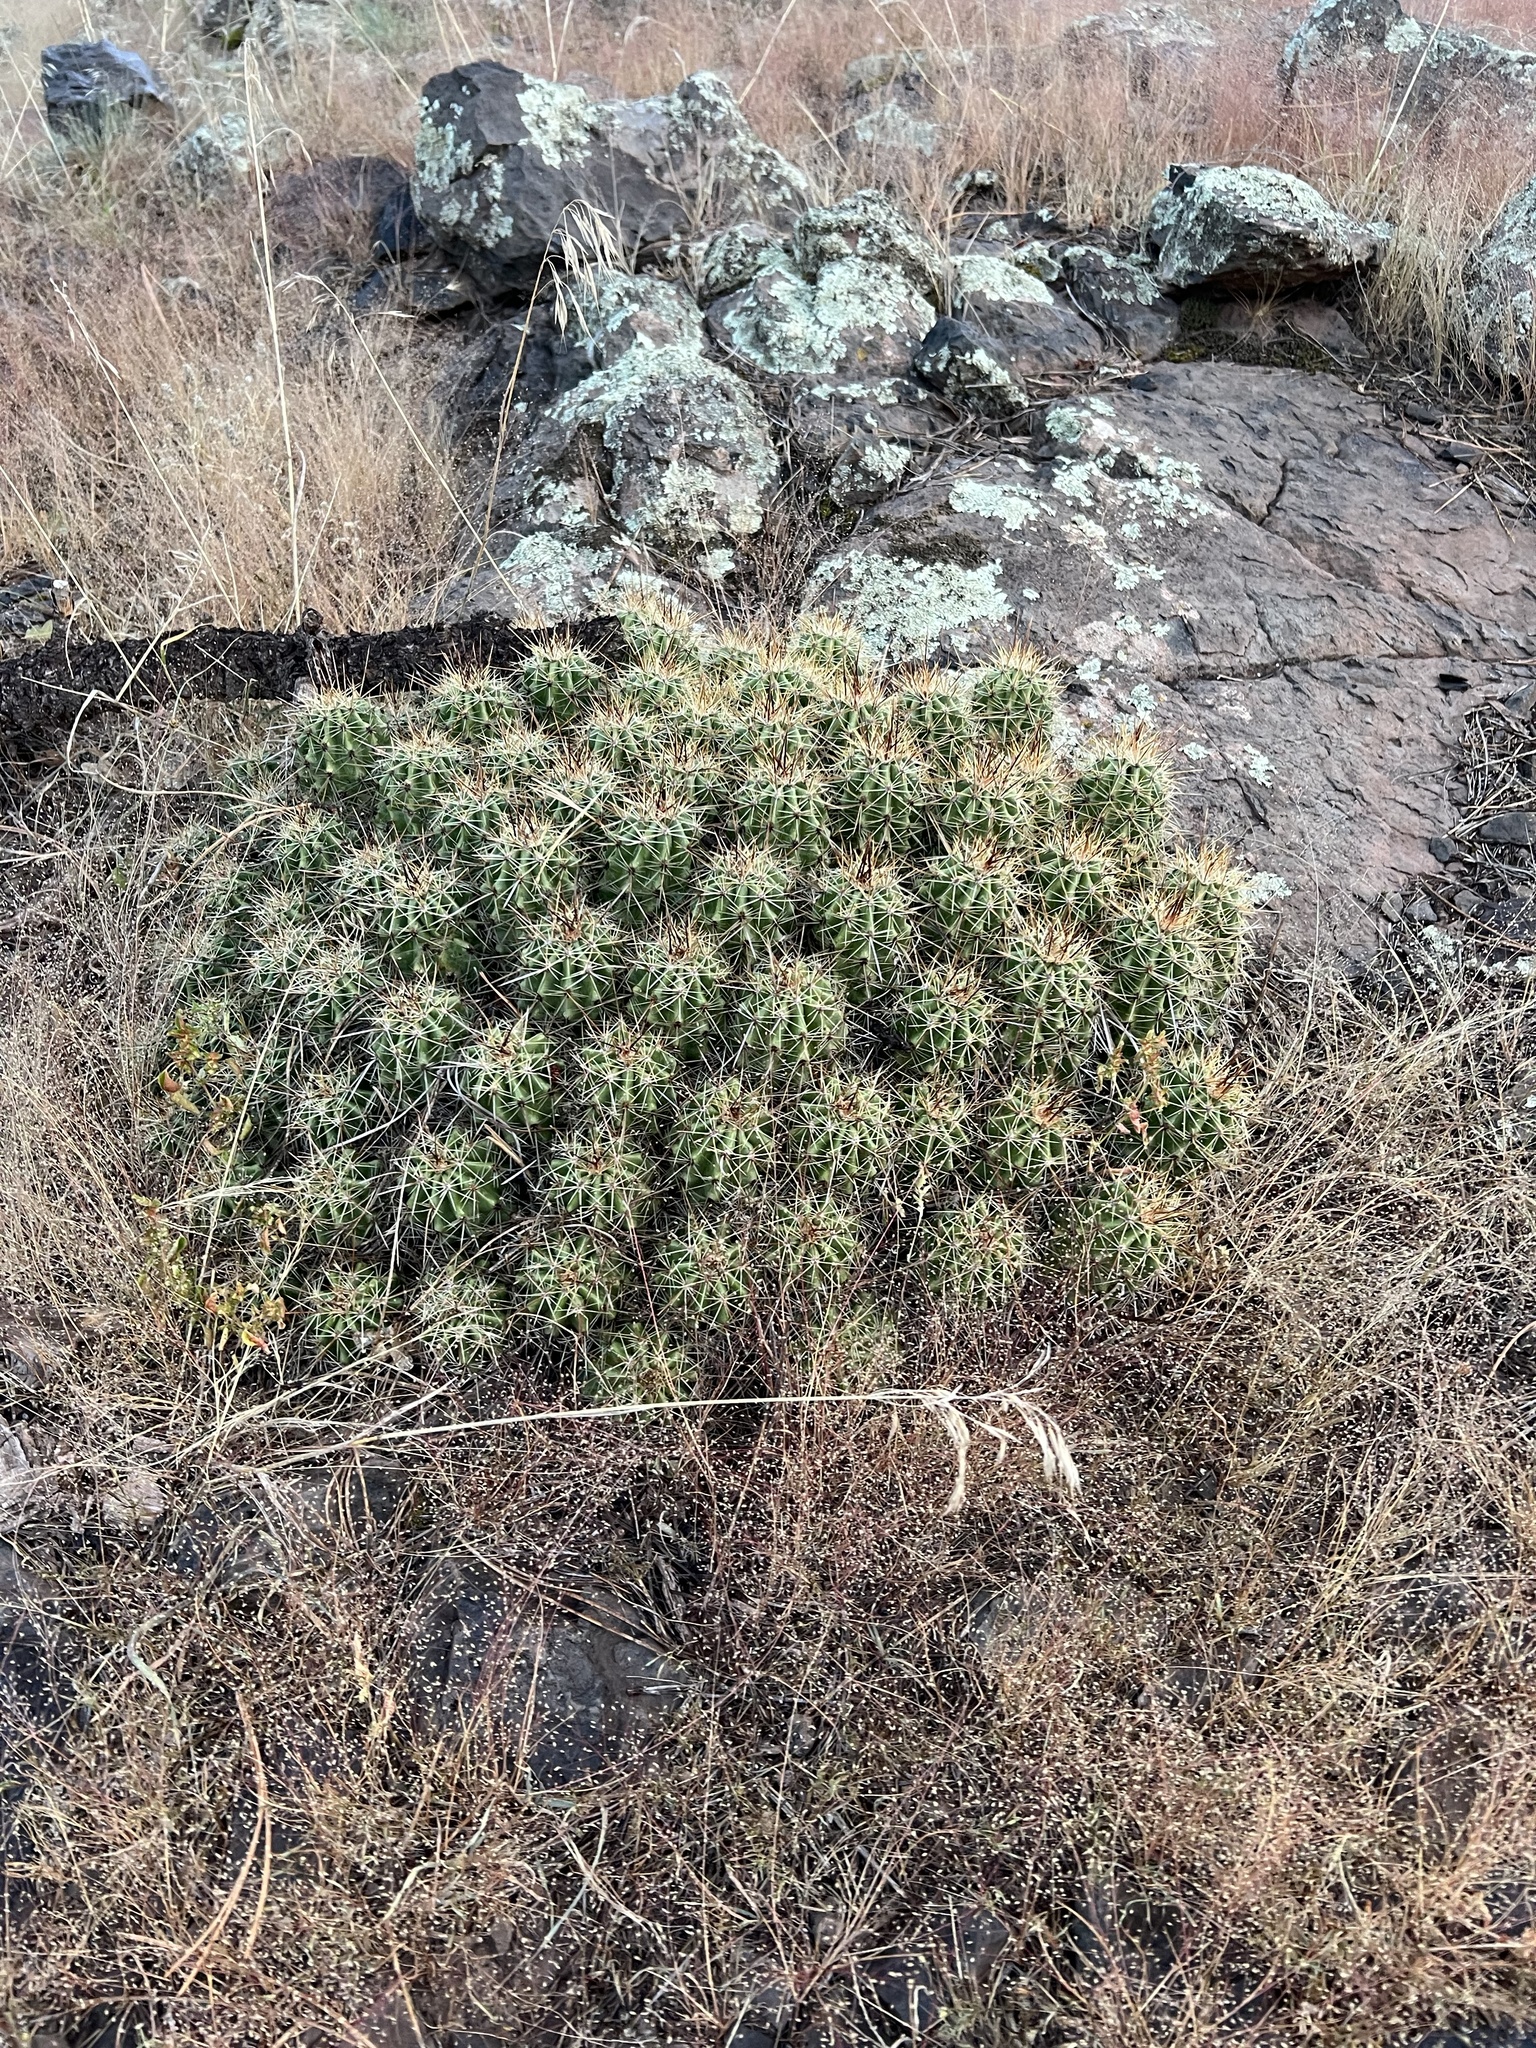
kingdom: Plantae
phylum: Tracheophyta
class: Magnoliopsida
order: Caryophyllales
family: Cactaceae
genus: Echinocereus
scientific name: Echinocereus bakeri
